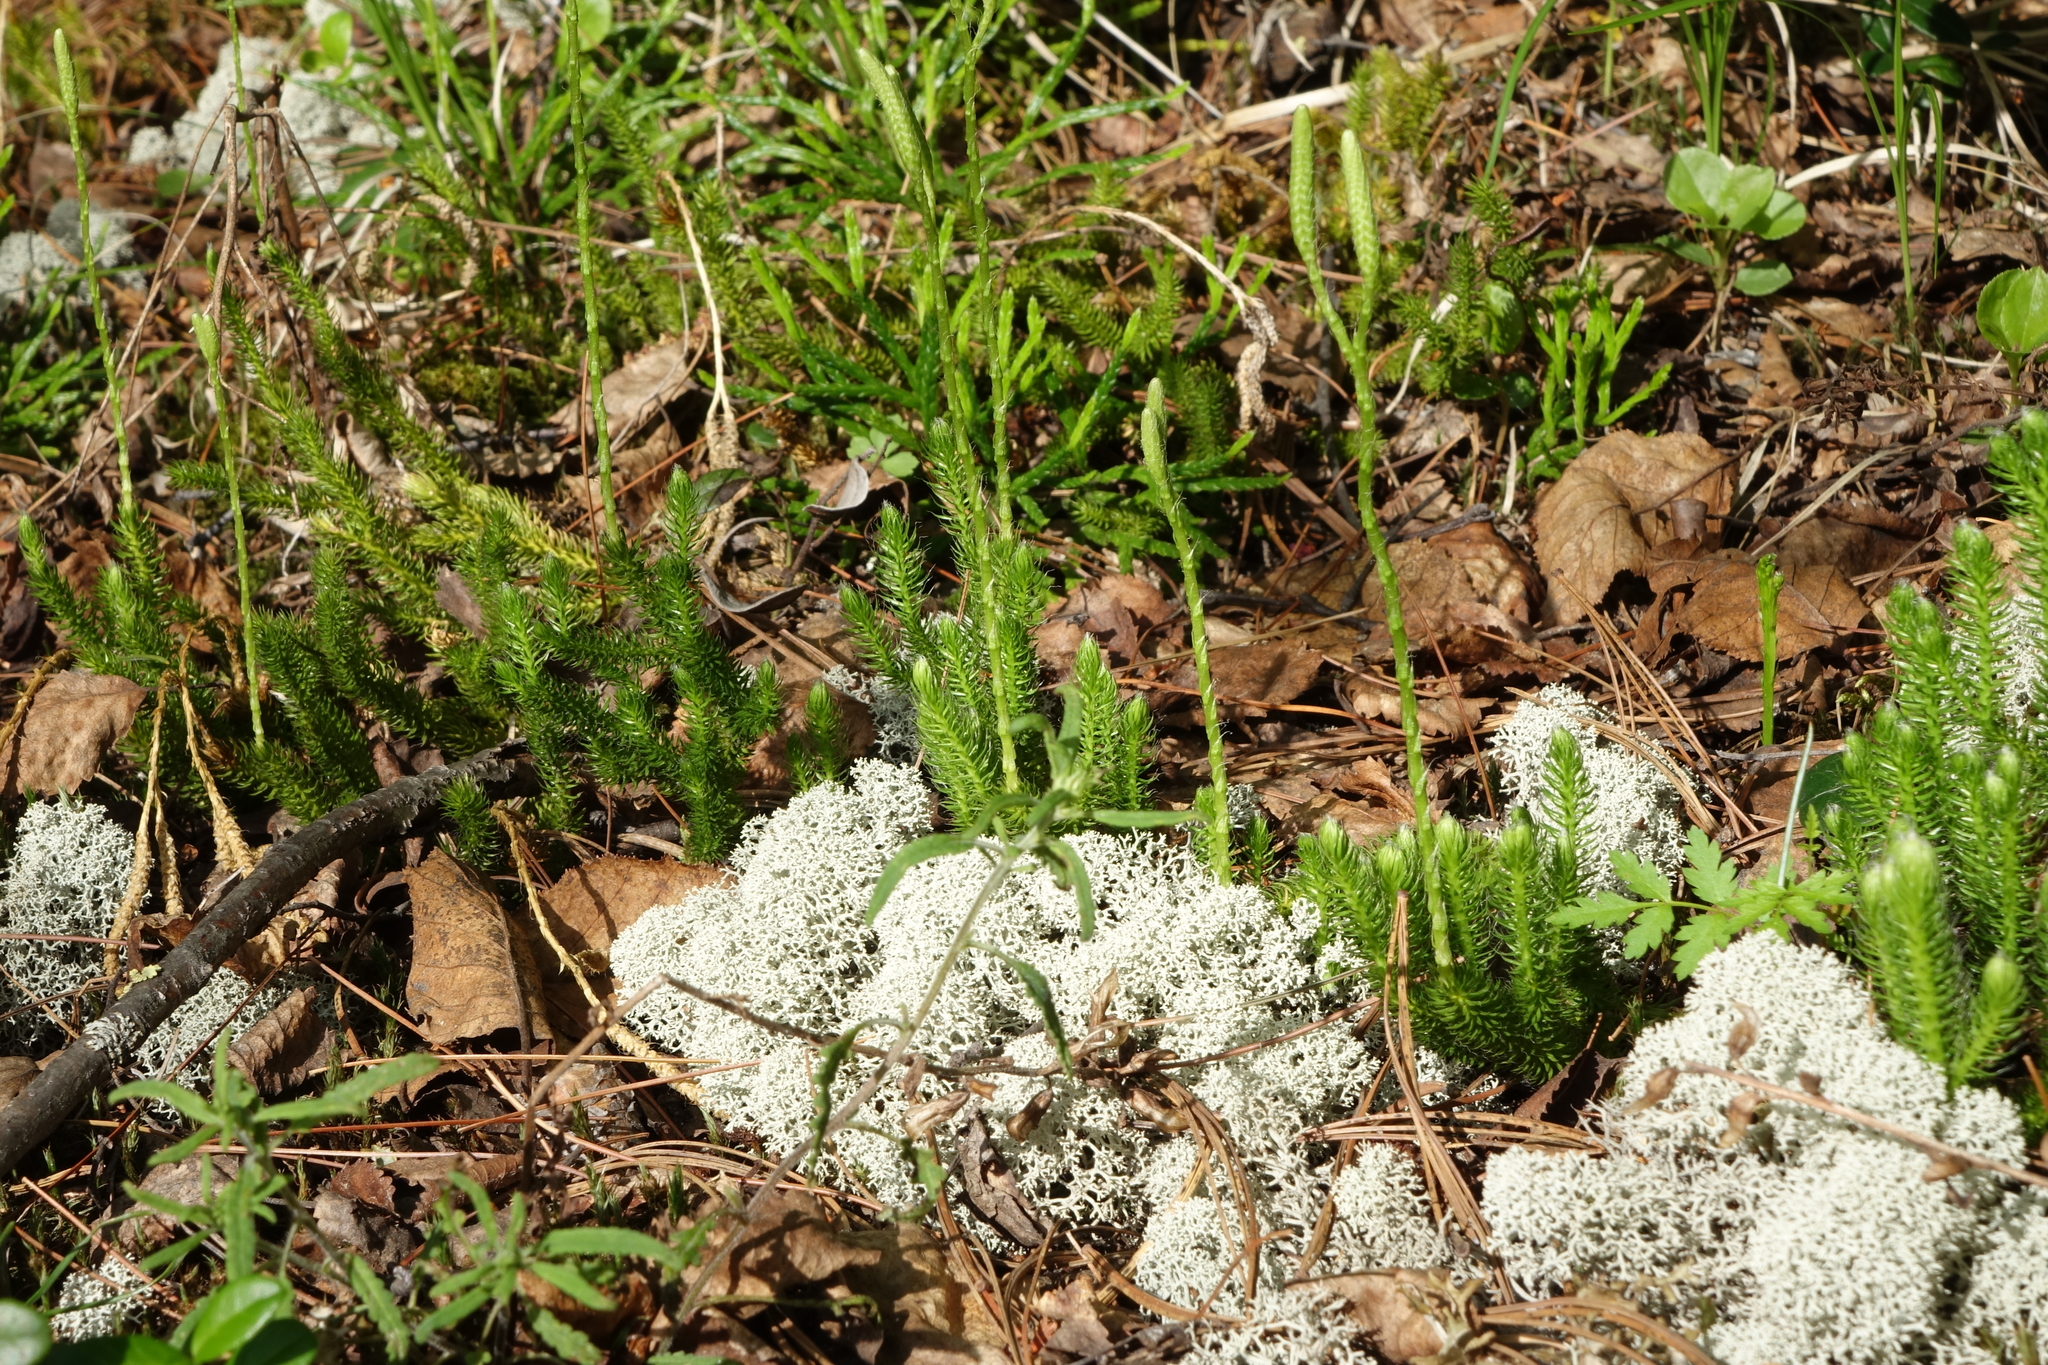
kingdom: Plantae
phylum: Tracheophyta
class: Lycopodiopsida
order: Lycopodiales
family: Lycopodiaceae
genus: Lycopodium
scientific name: Lycopodium clavatum
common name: Stag's-horn clubmoss
